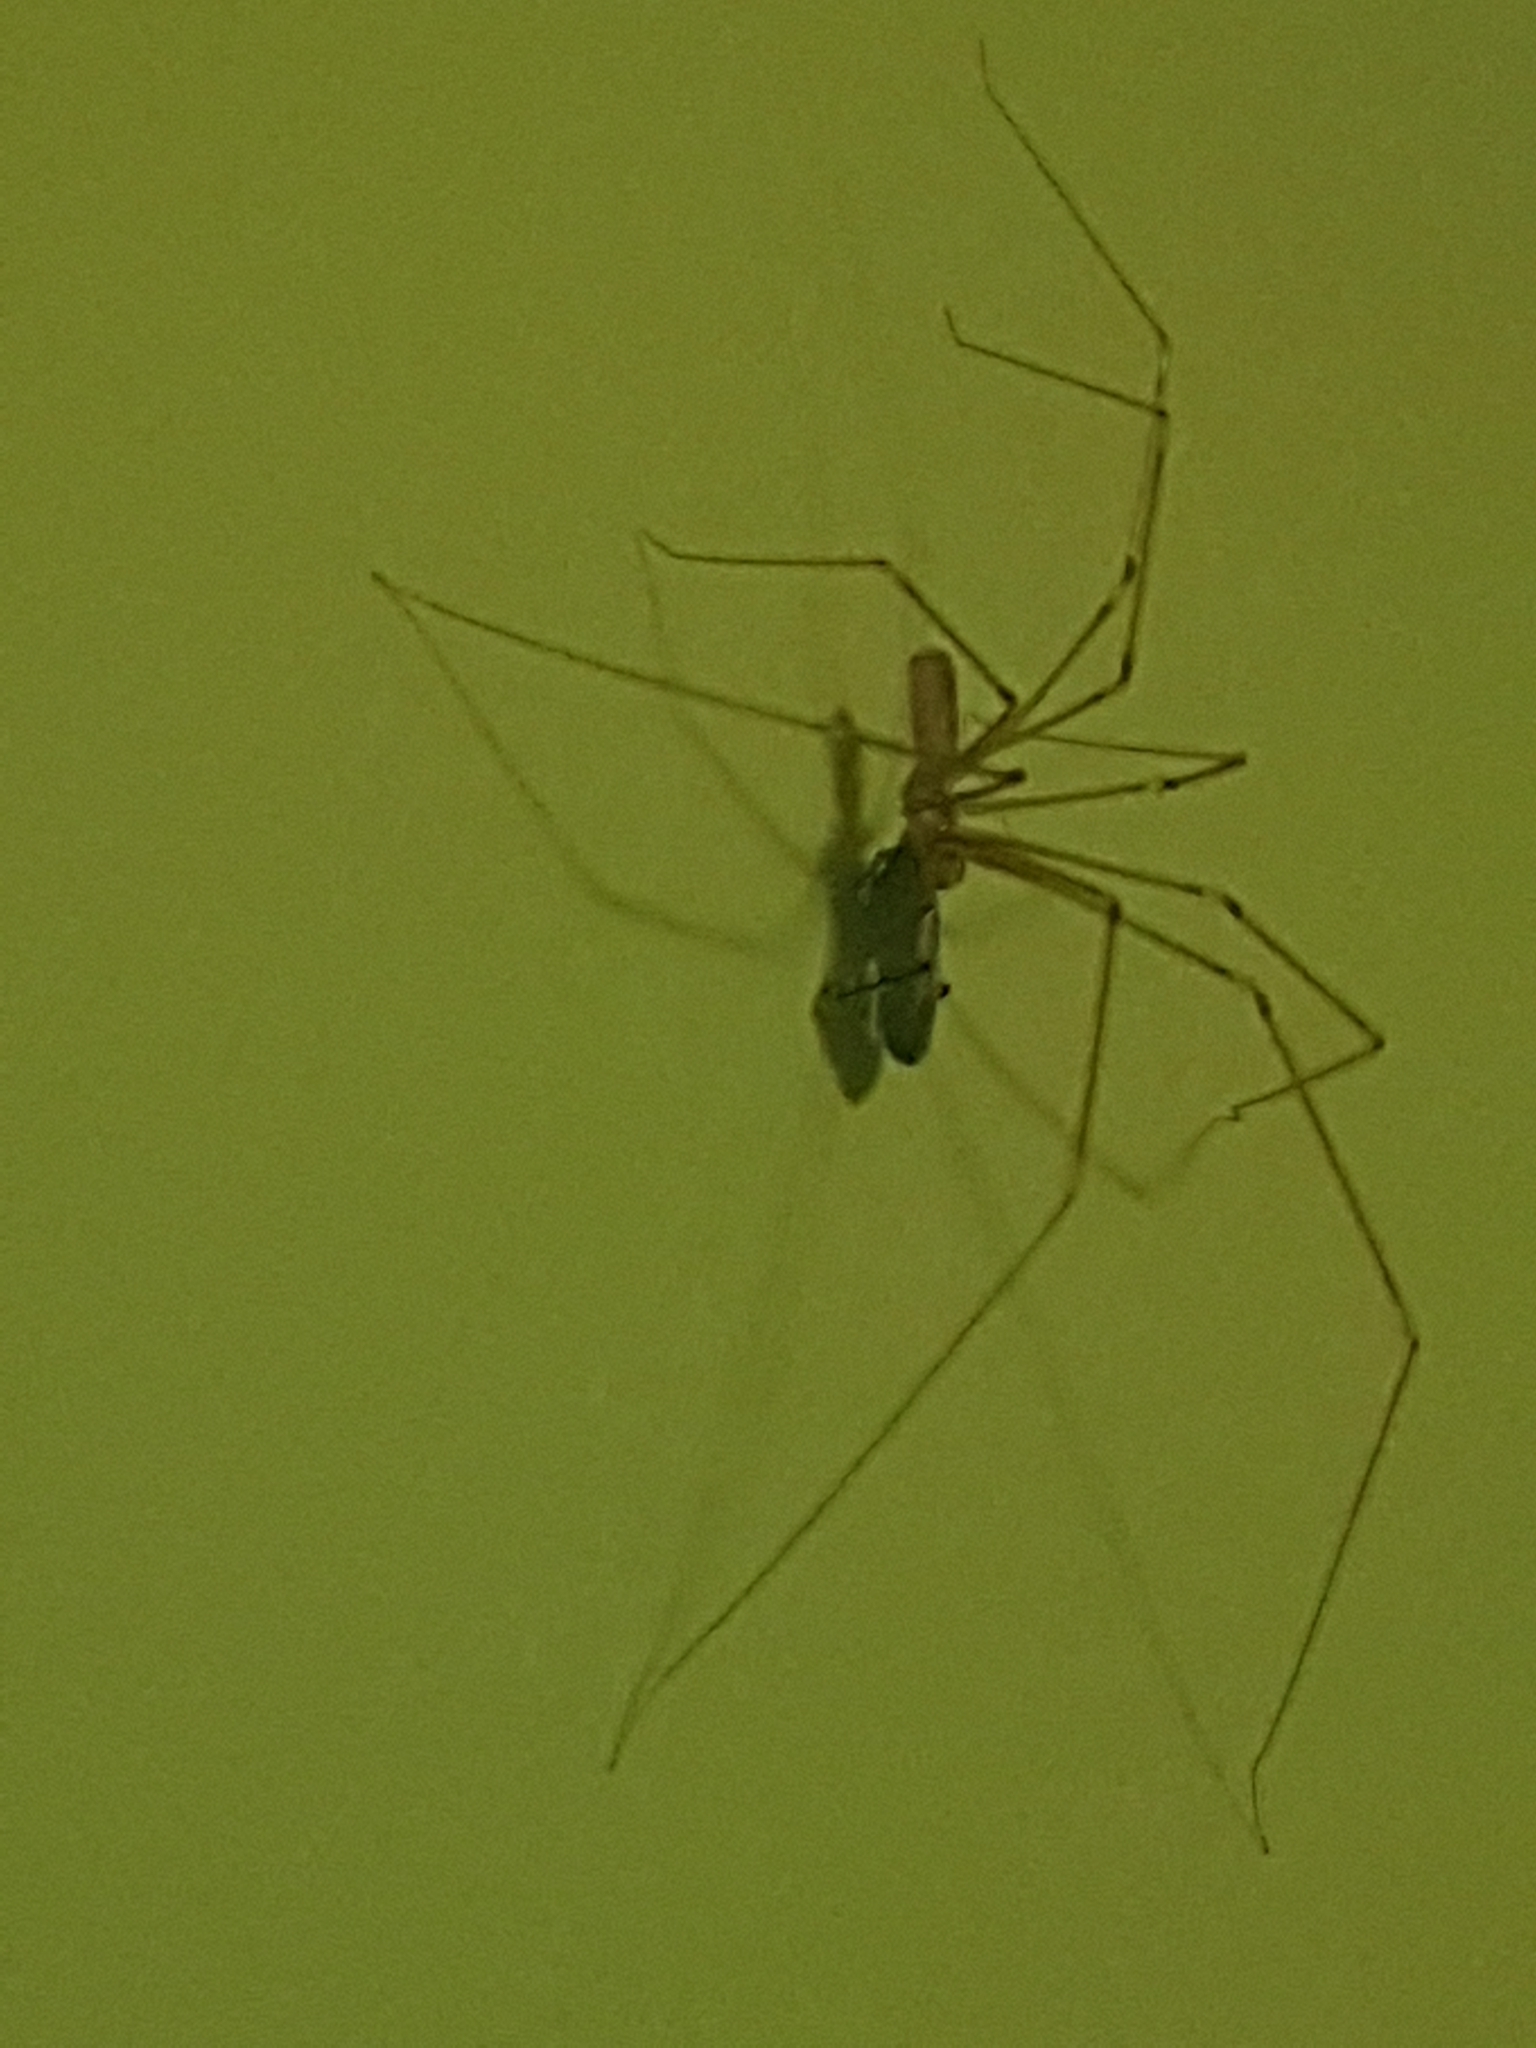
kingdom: Animalia
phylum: Arthropoda
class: Arachnida
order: Araneae
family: Pholcidae
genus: Pholcus
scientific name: Pholcus phalangioides
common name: Longbodied cellar spider
